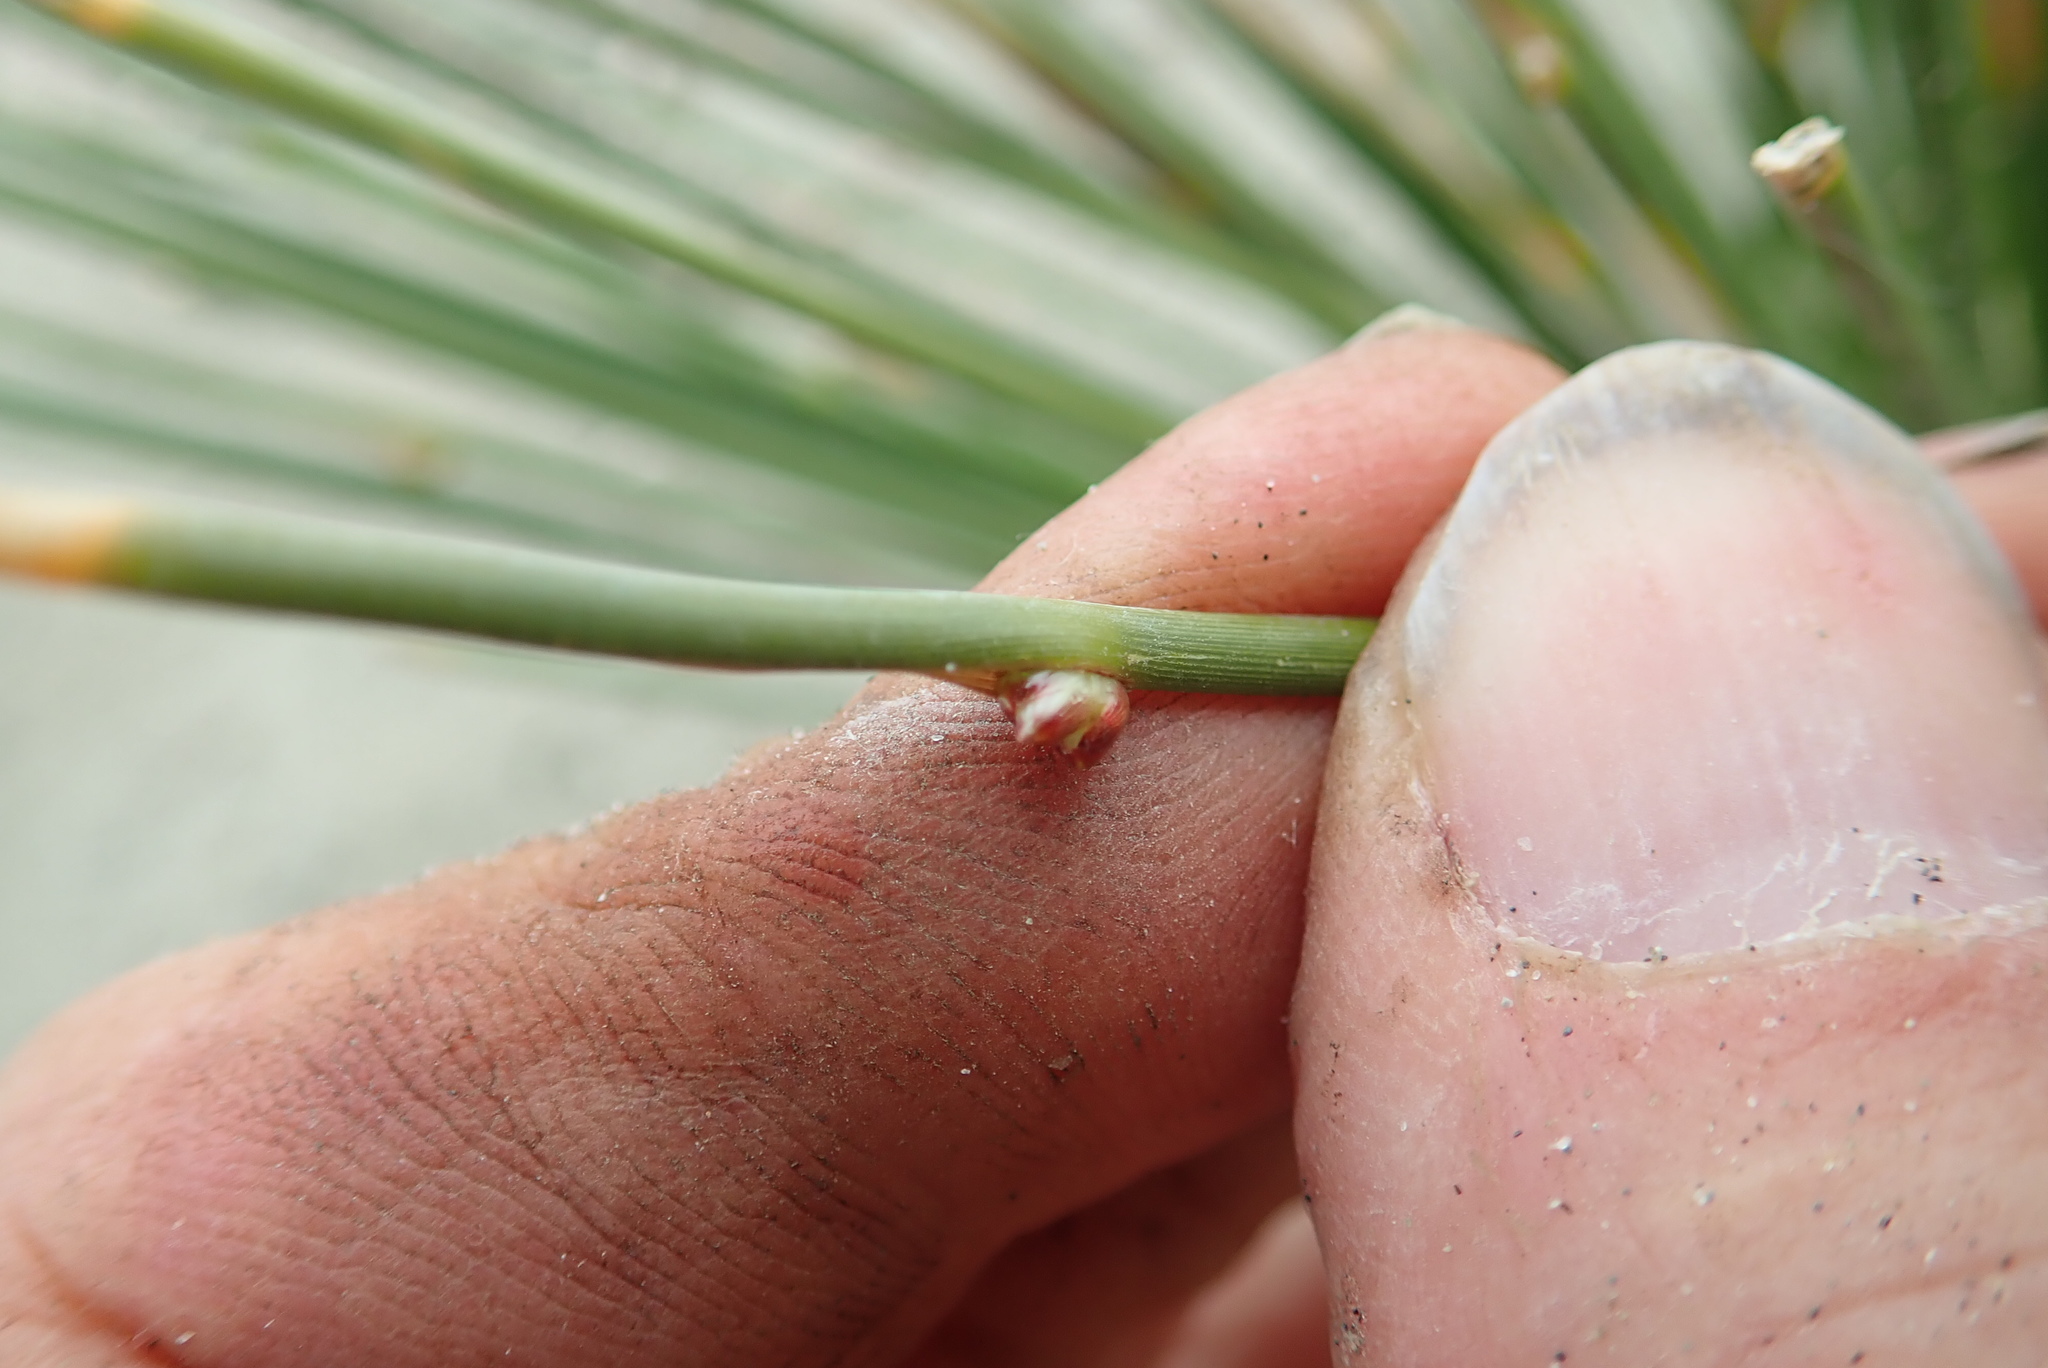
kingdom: Plantae
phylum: Tracheophyta
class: Liliopsida
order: Poales
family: Cyperaceae
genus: Ficinia
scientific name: Ficinia nodosa
